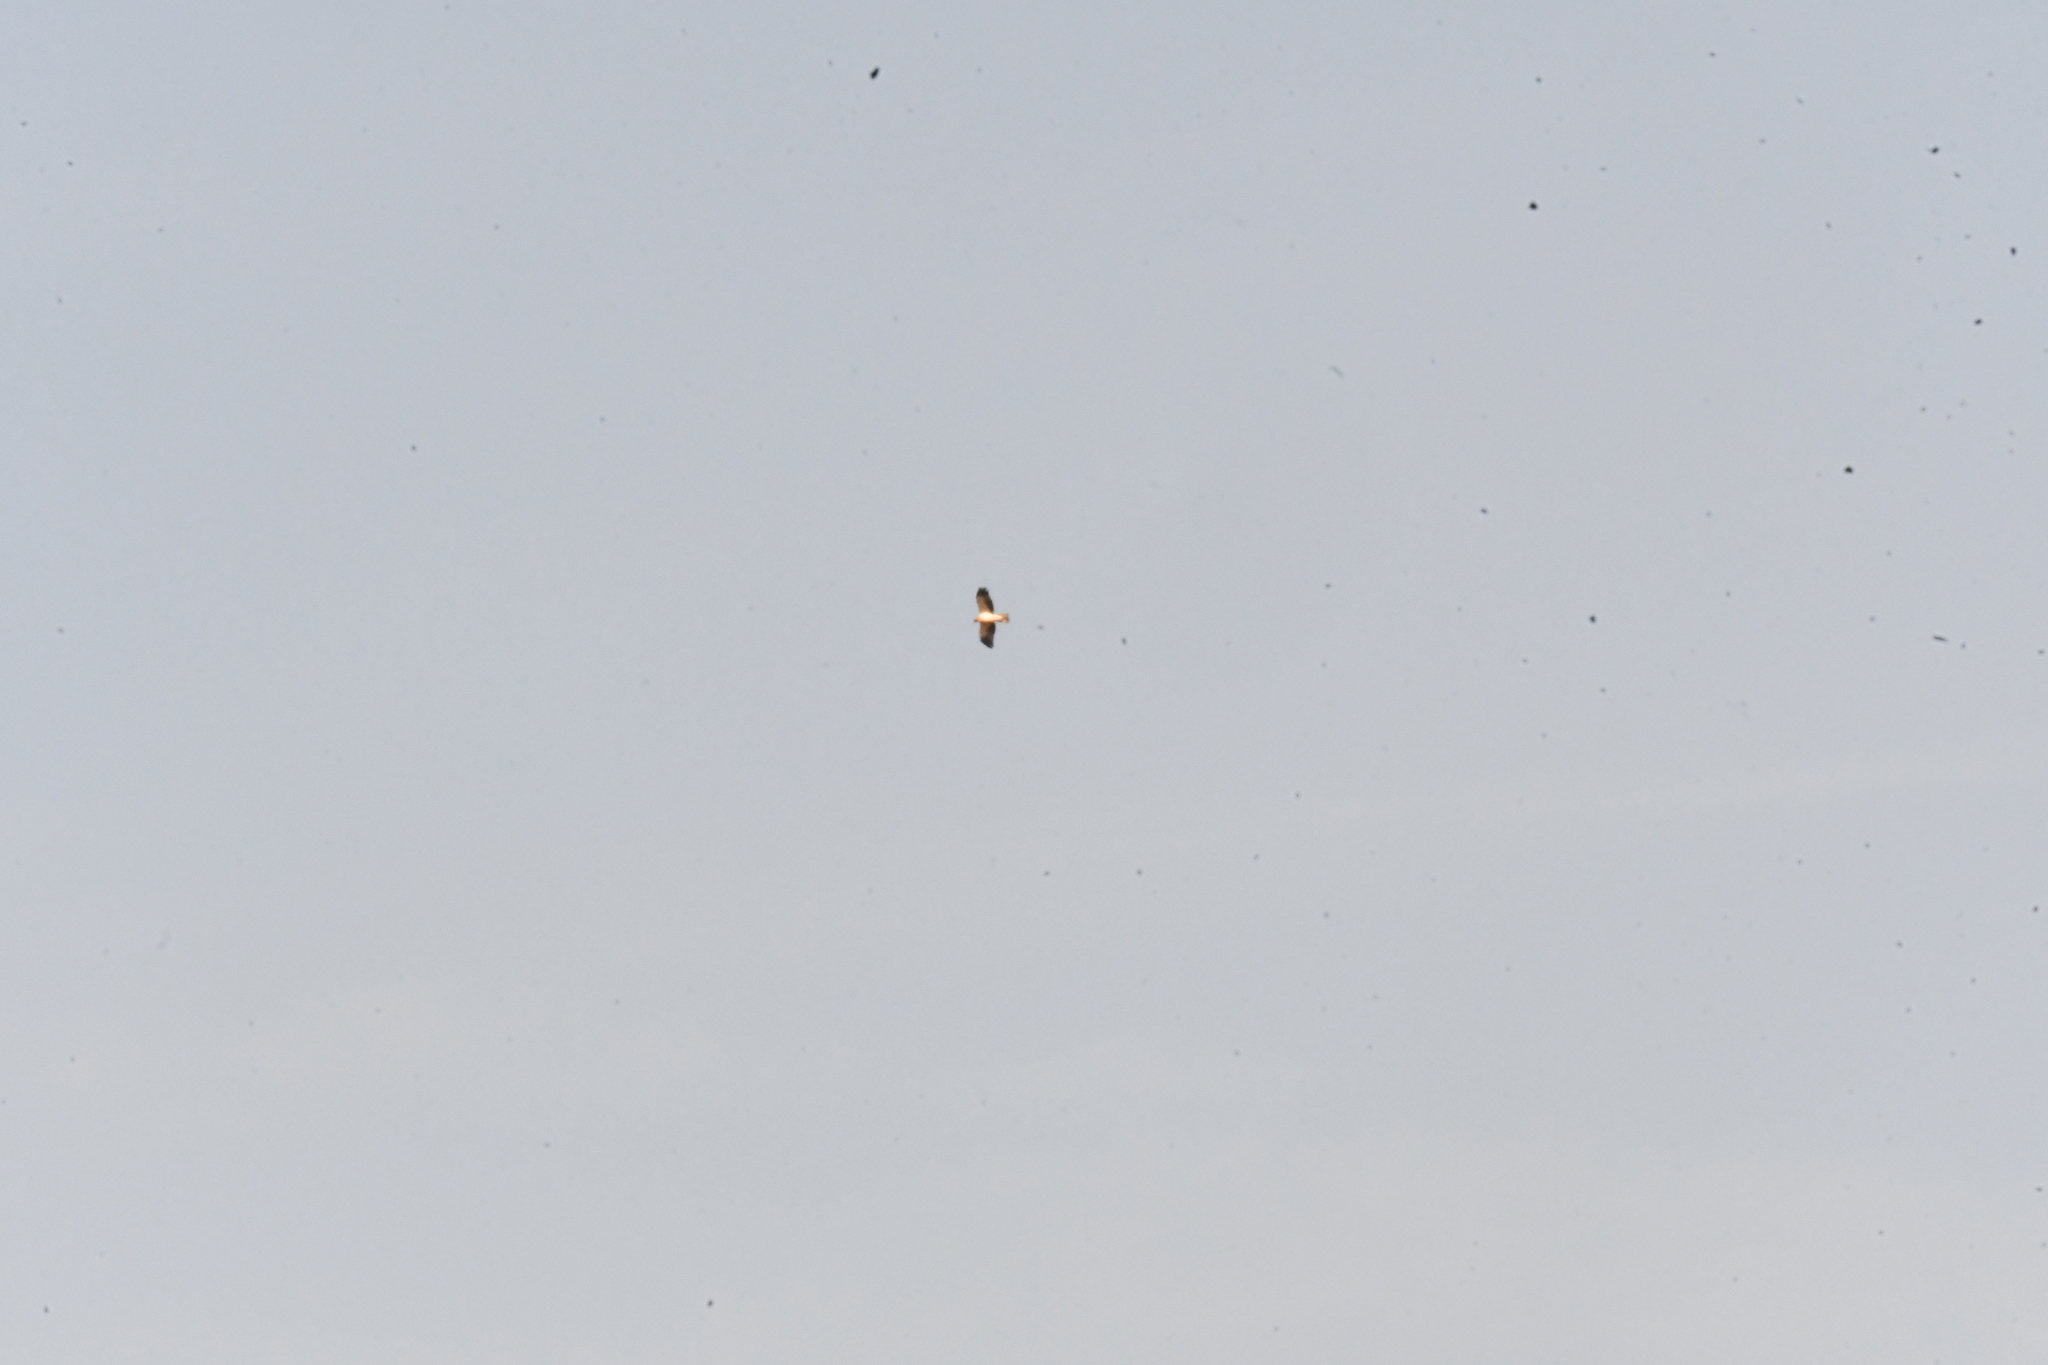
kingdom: Animalia
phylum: Chordata
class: Aves
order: Accipitriformes
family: Accipitridae
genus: Hieraaetus
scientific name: Hieraaetus pennatus
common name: Booted eagle
